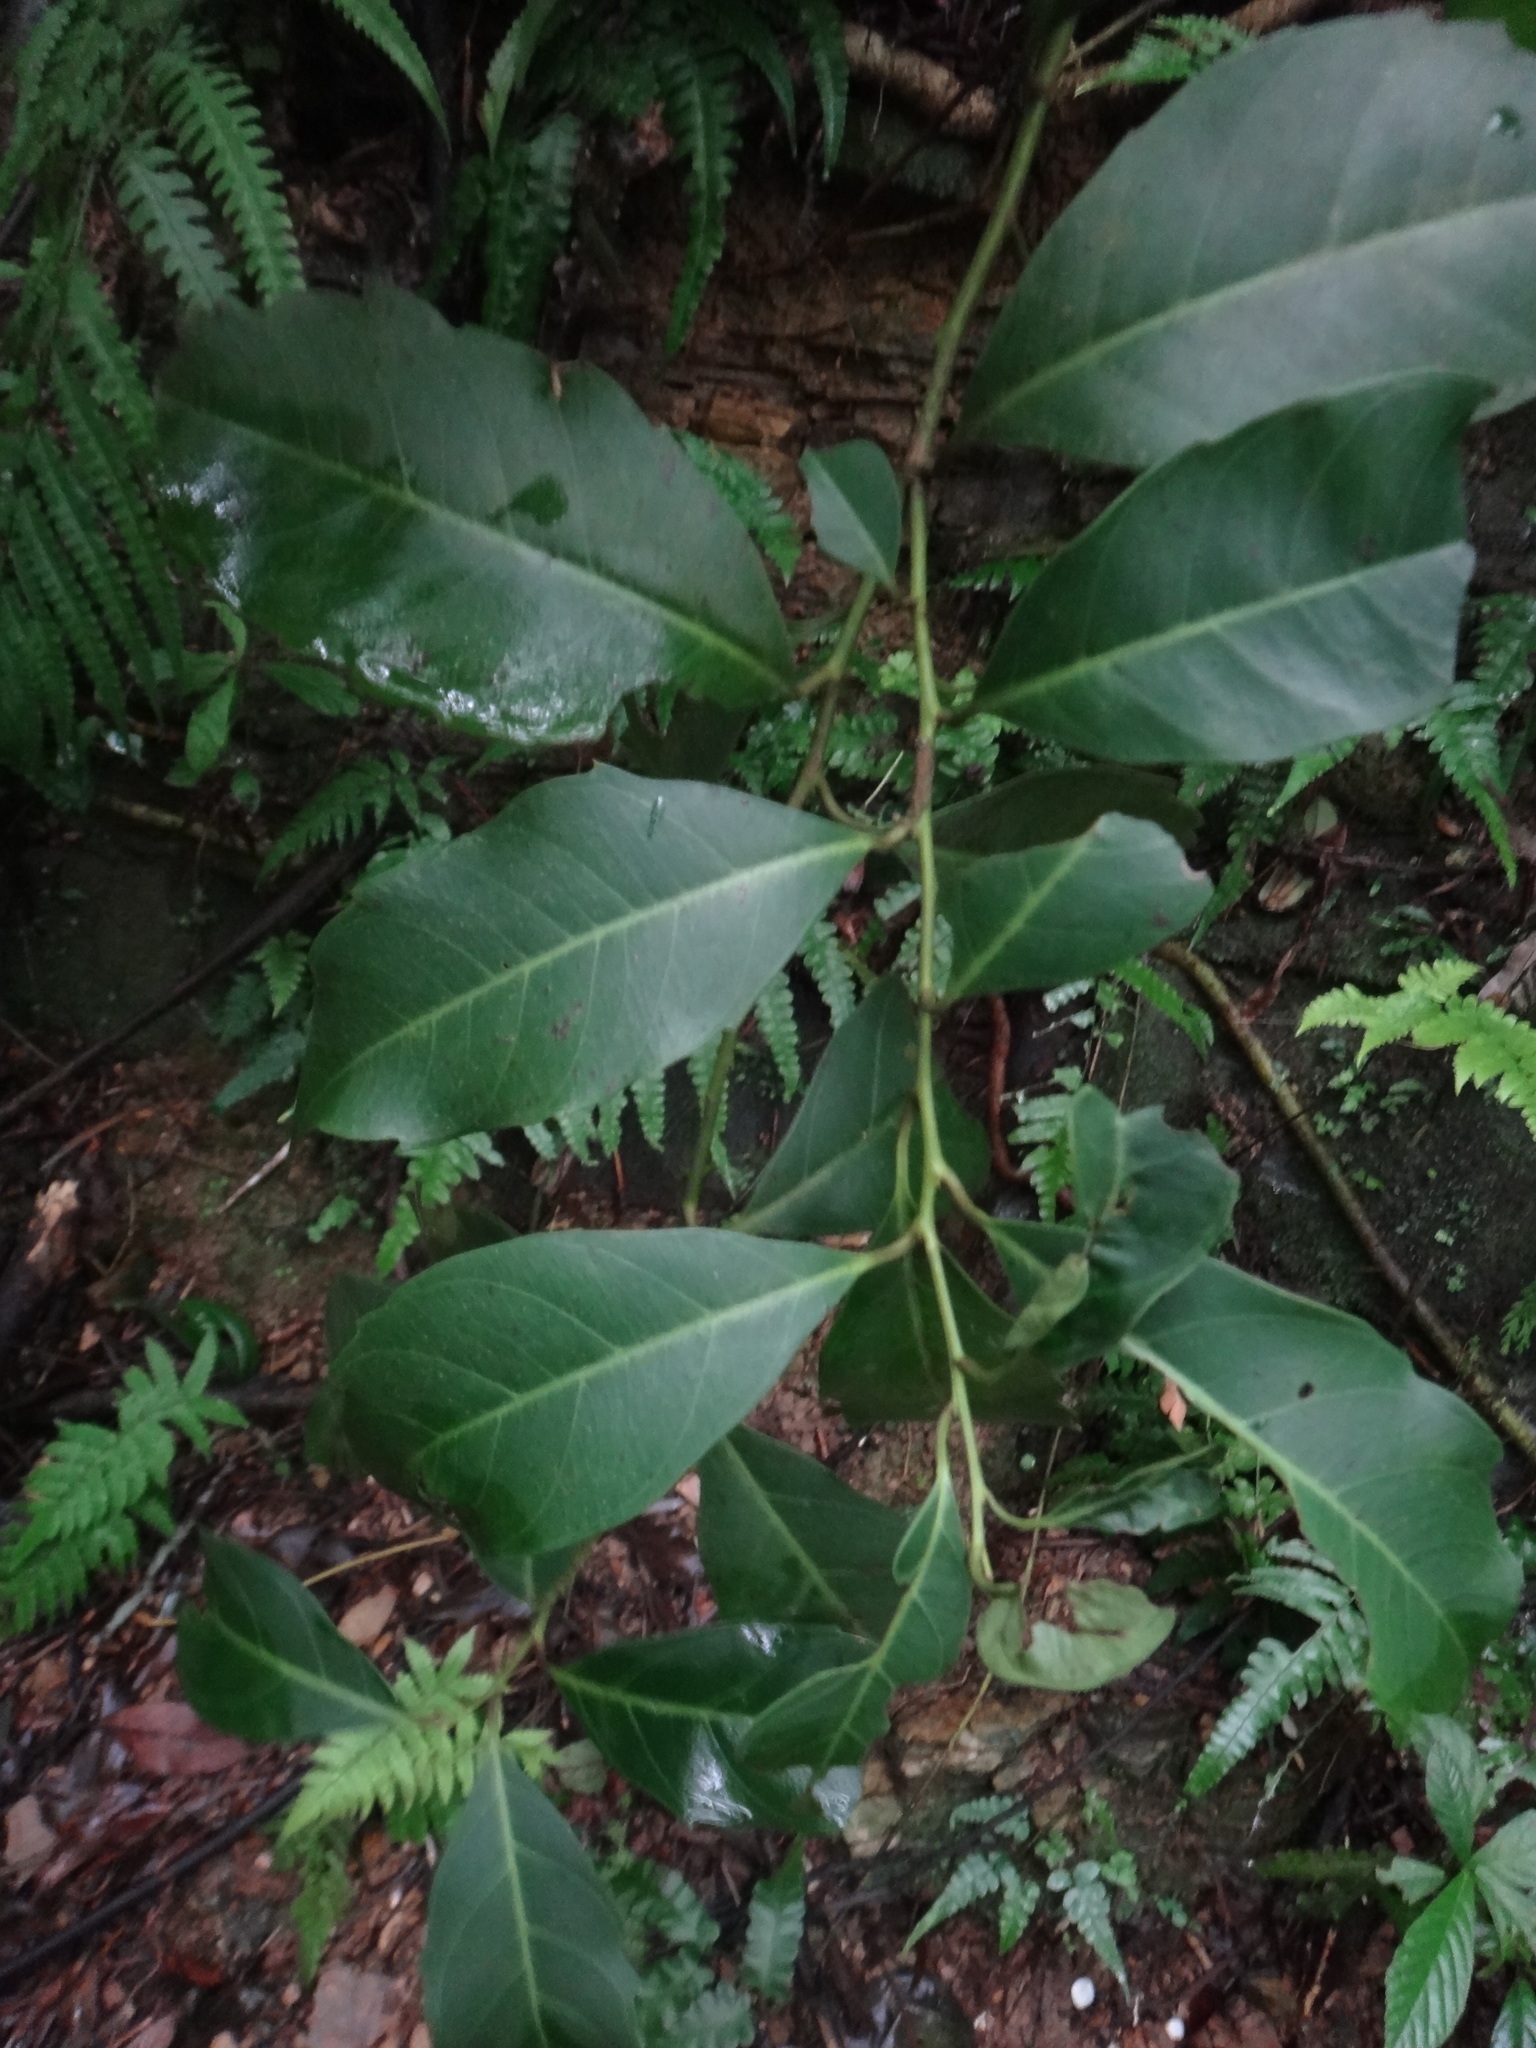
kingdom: Plantae
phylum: Tracheophyta
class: Magnoliopsida
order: Saxifragales
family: Iteaceae
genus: Itea
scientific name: Itea oldhamii
